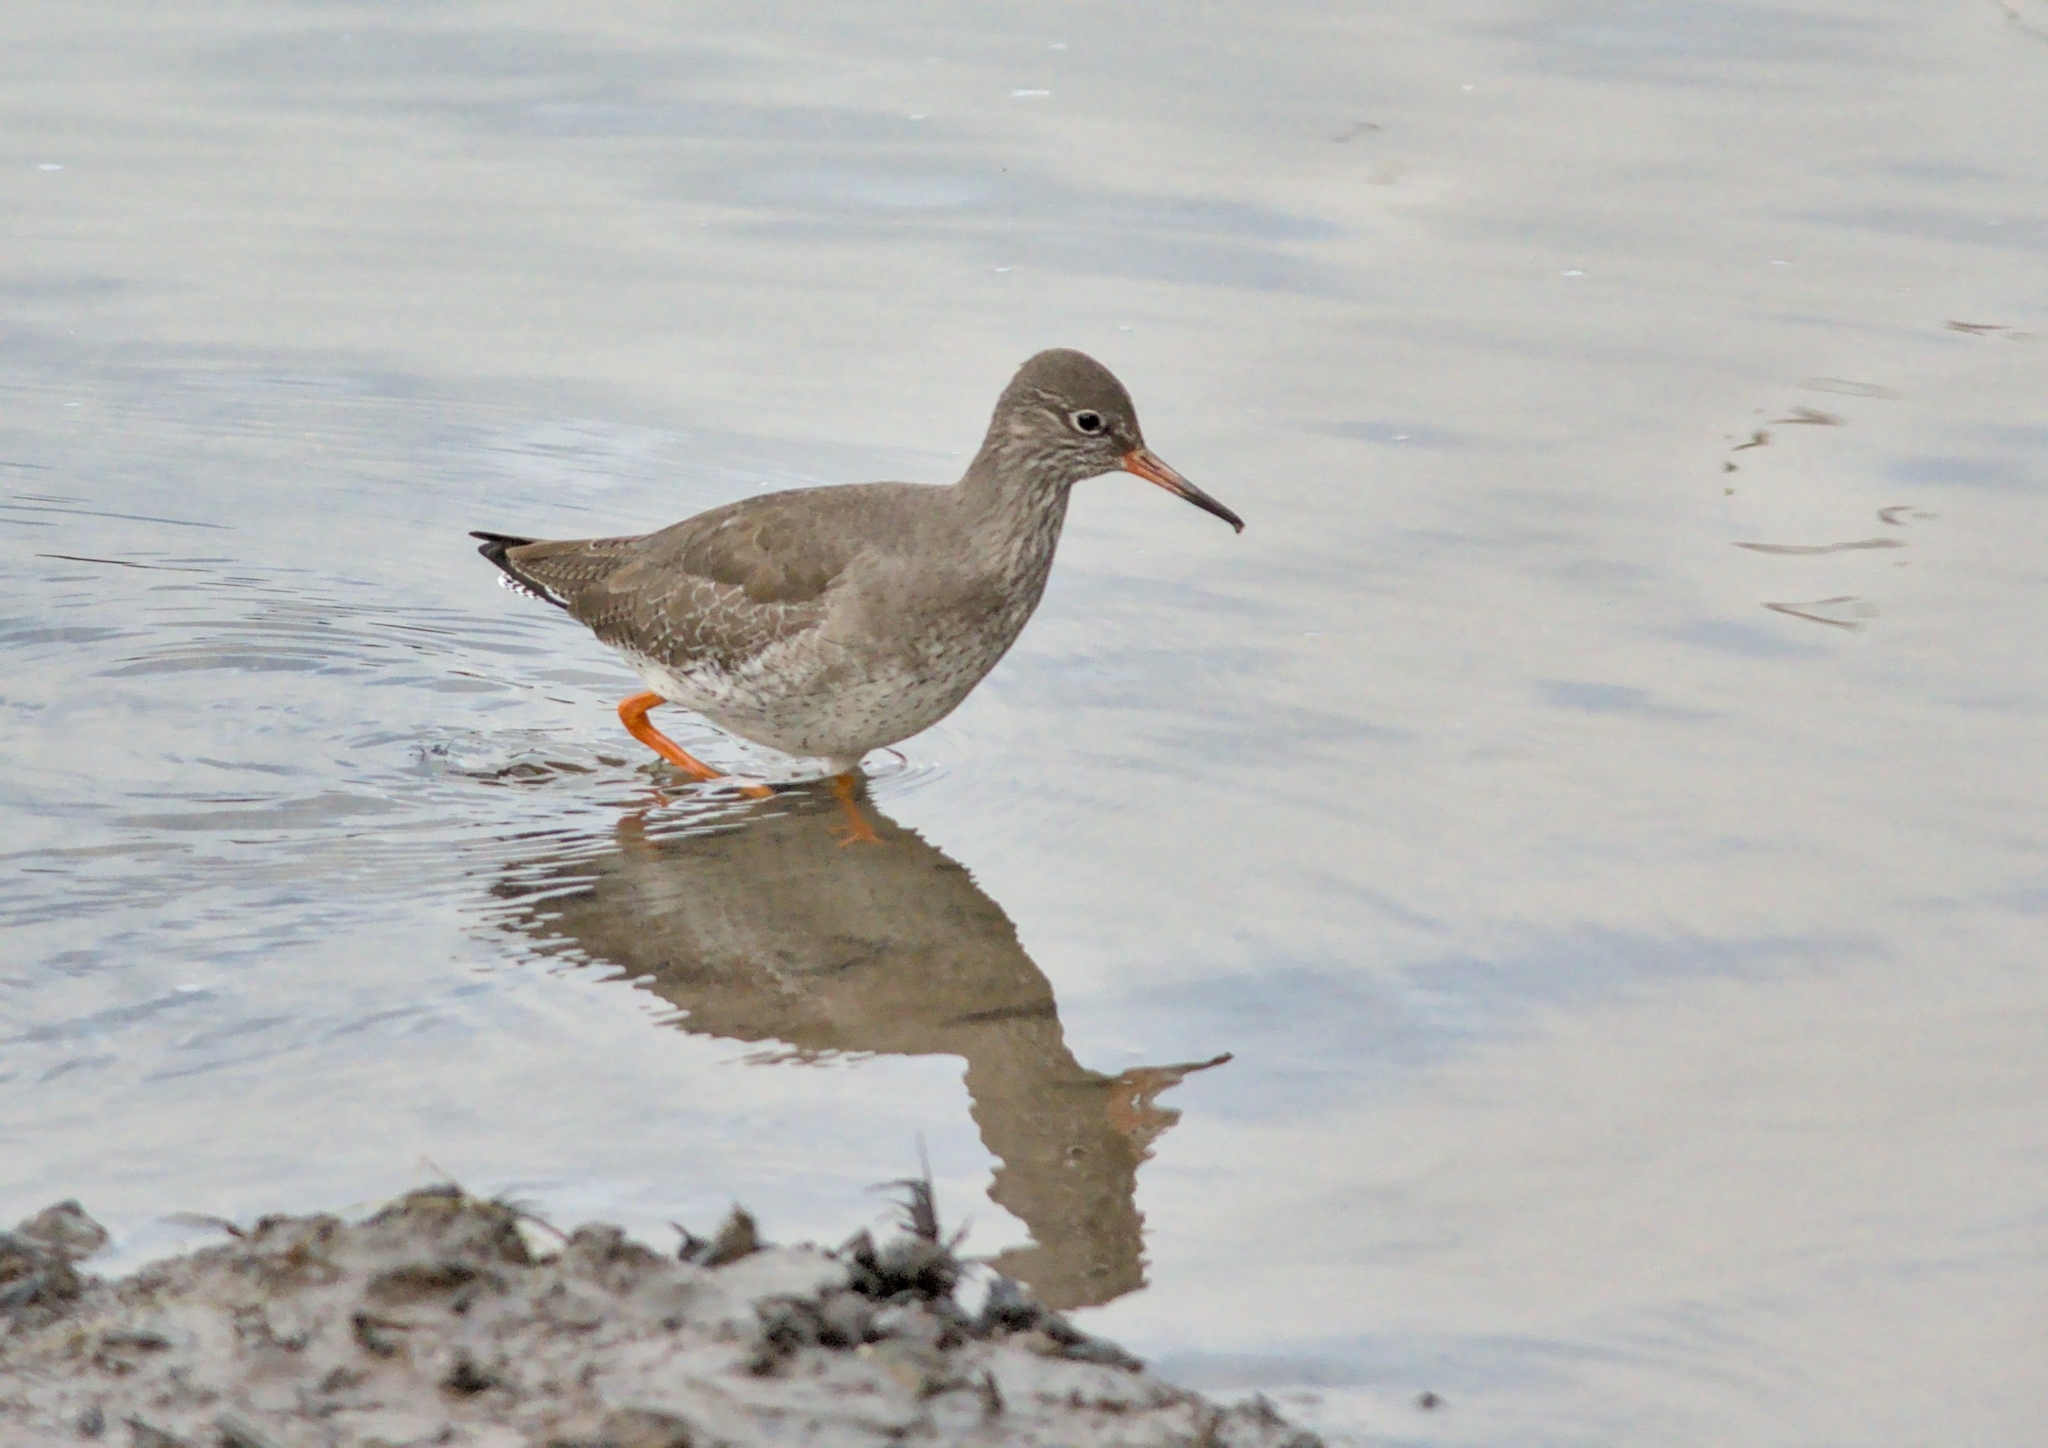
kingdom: Animalia
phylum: Chordata
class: Aves
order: Charadriiformes
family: Scolopacidae
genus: Tringa
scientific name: Tringa totanus
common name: Common redshank
